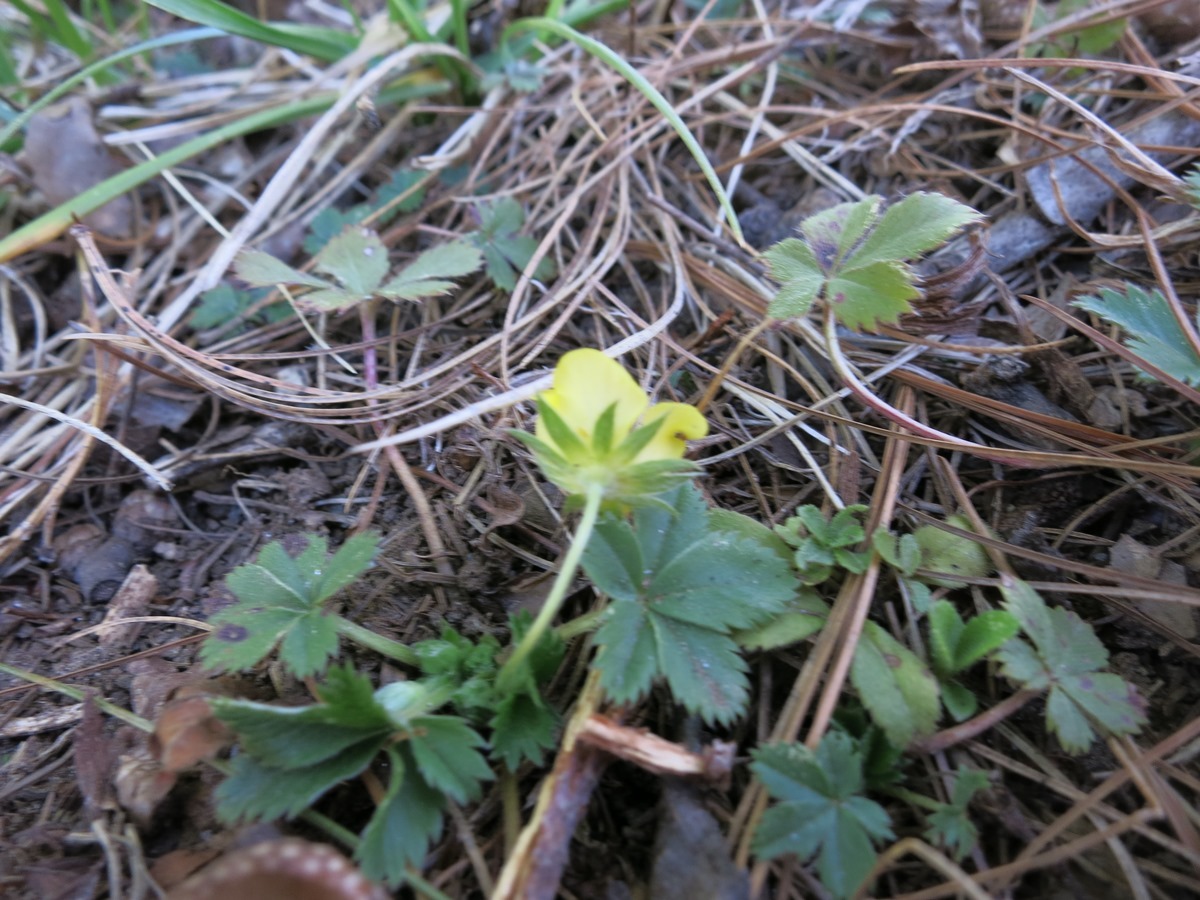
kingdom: Plantae
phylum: Tracheophyta
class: Magnoliopsida
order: Rosales
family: Rosaceae
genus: Potentilla
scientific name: Potentilla canadensis
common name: Canada cinquefoil
